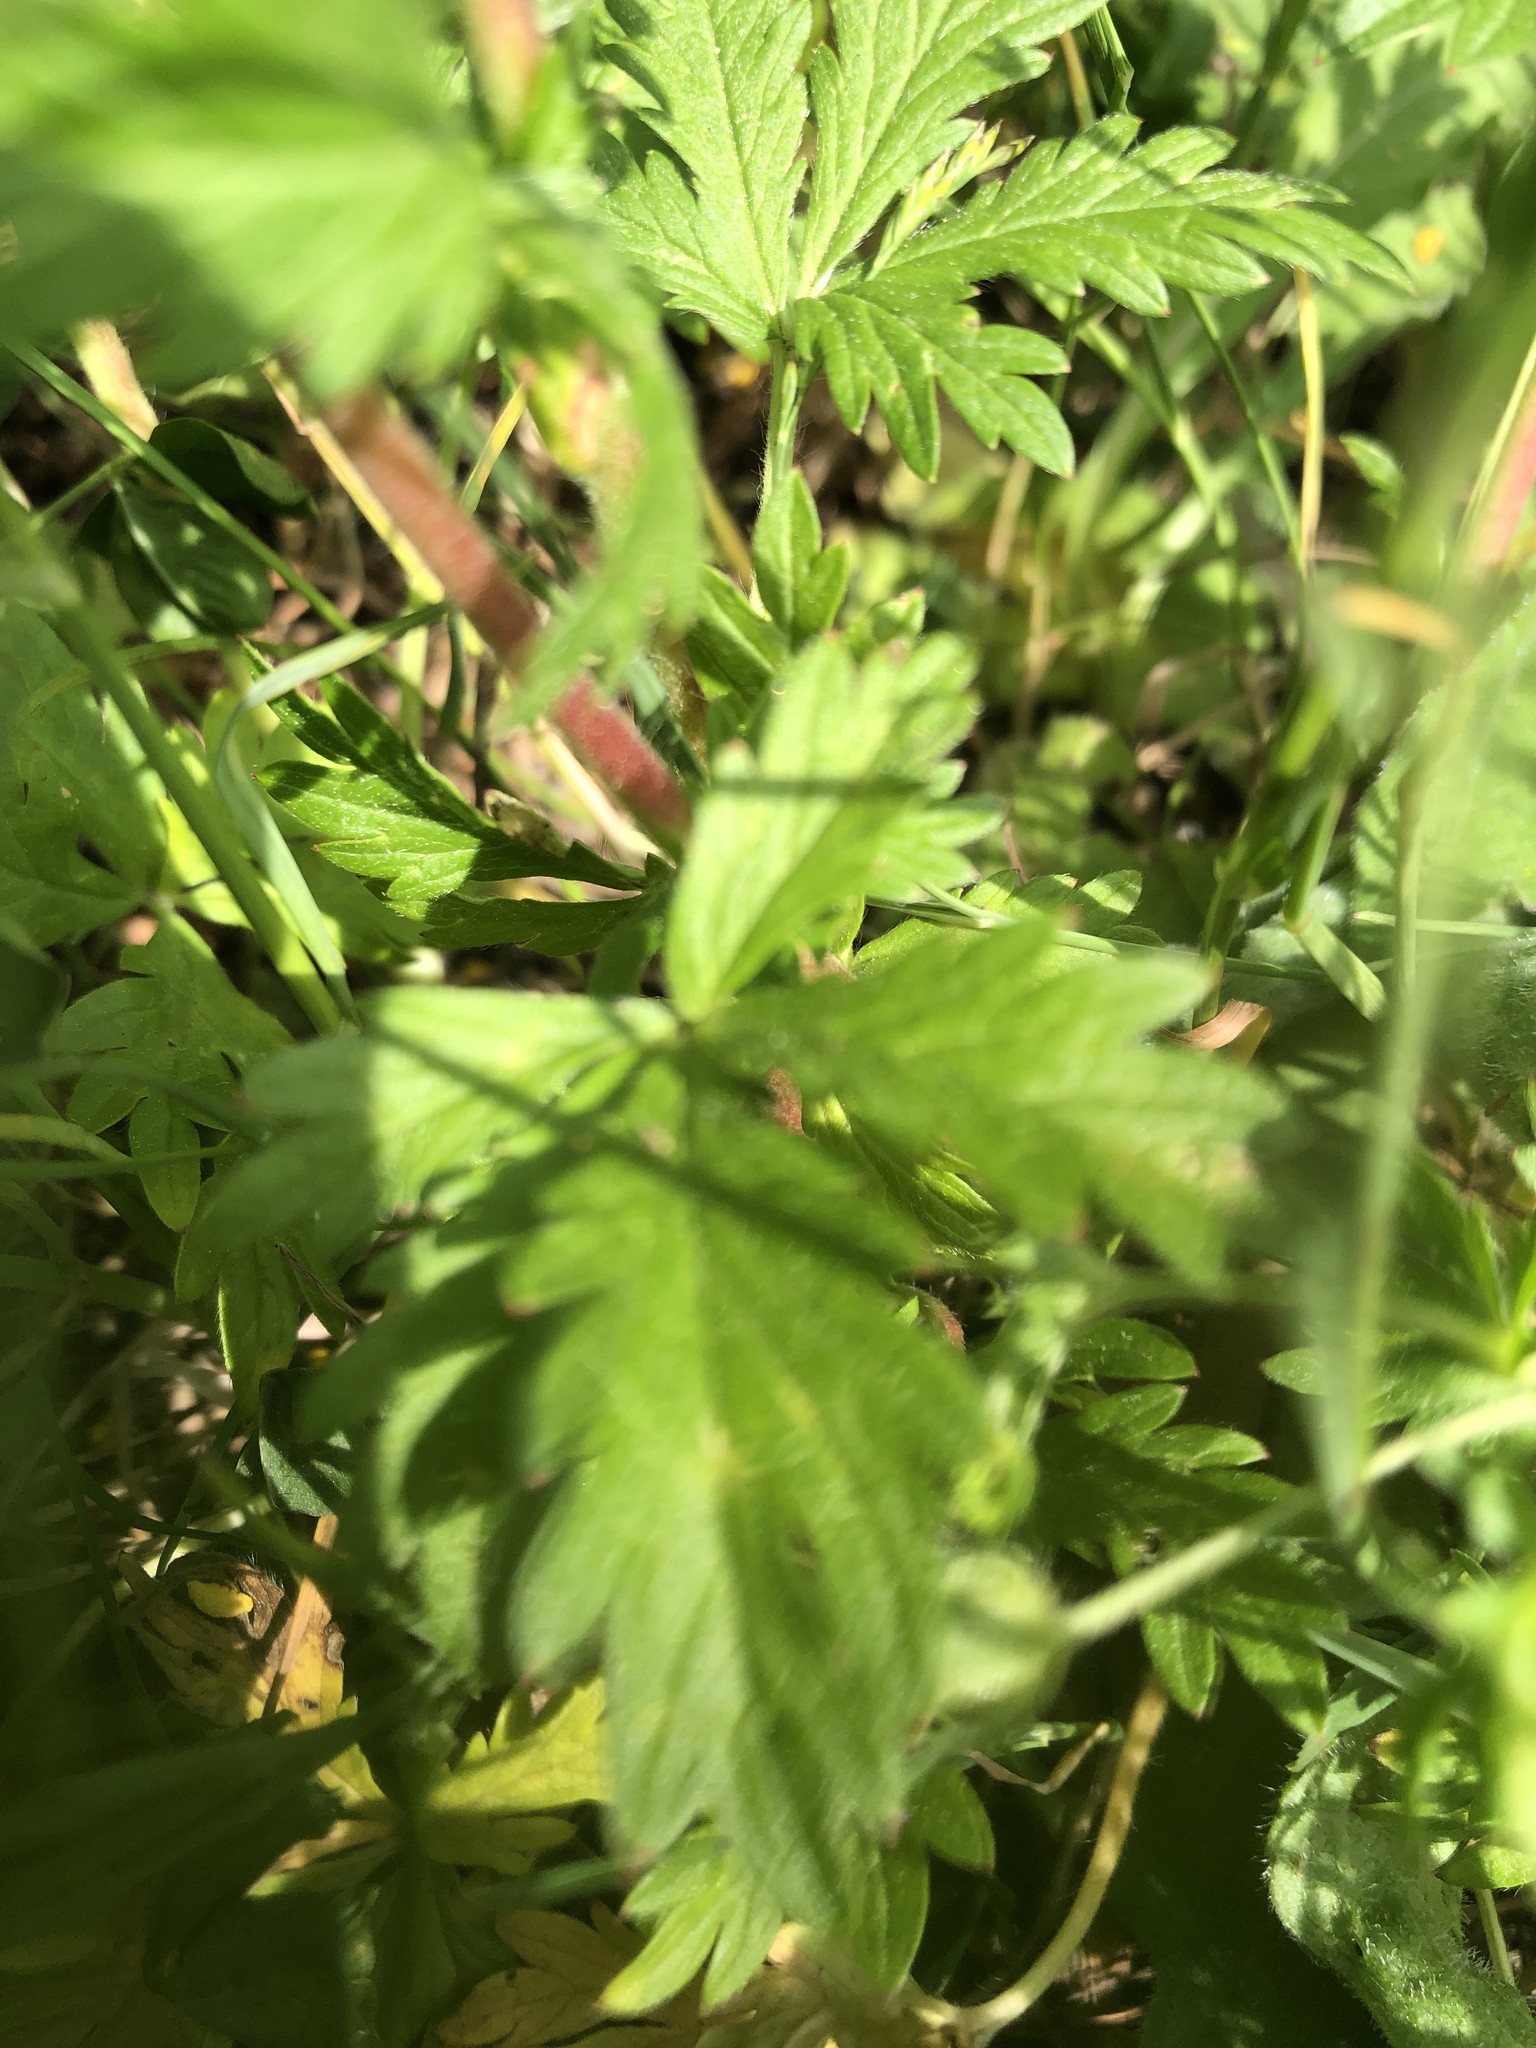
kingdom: Plantae
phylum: Tracheophyta
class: Magnoliopsida
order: Rosales
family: Rosaceae
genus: Potentilla
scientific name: Potentilla norvegica
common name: Ternate-leaved cinquefoil
